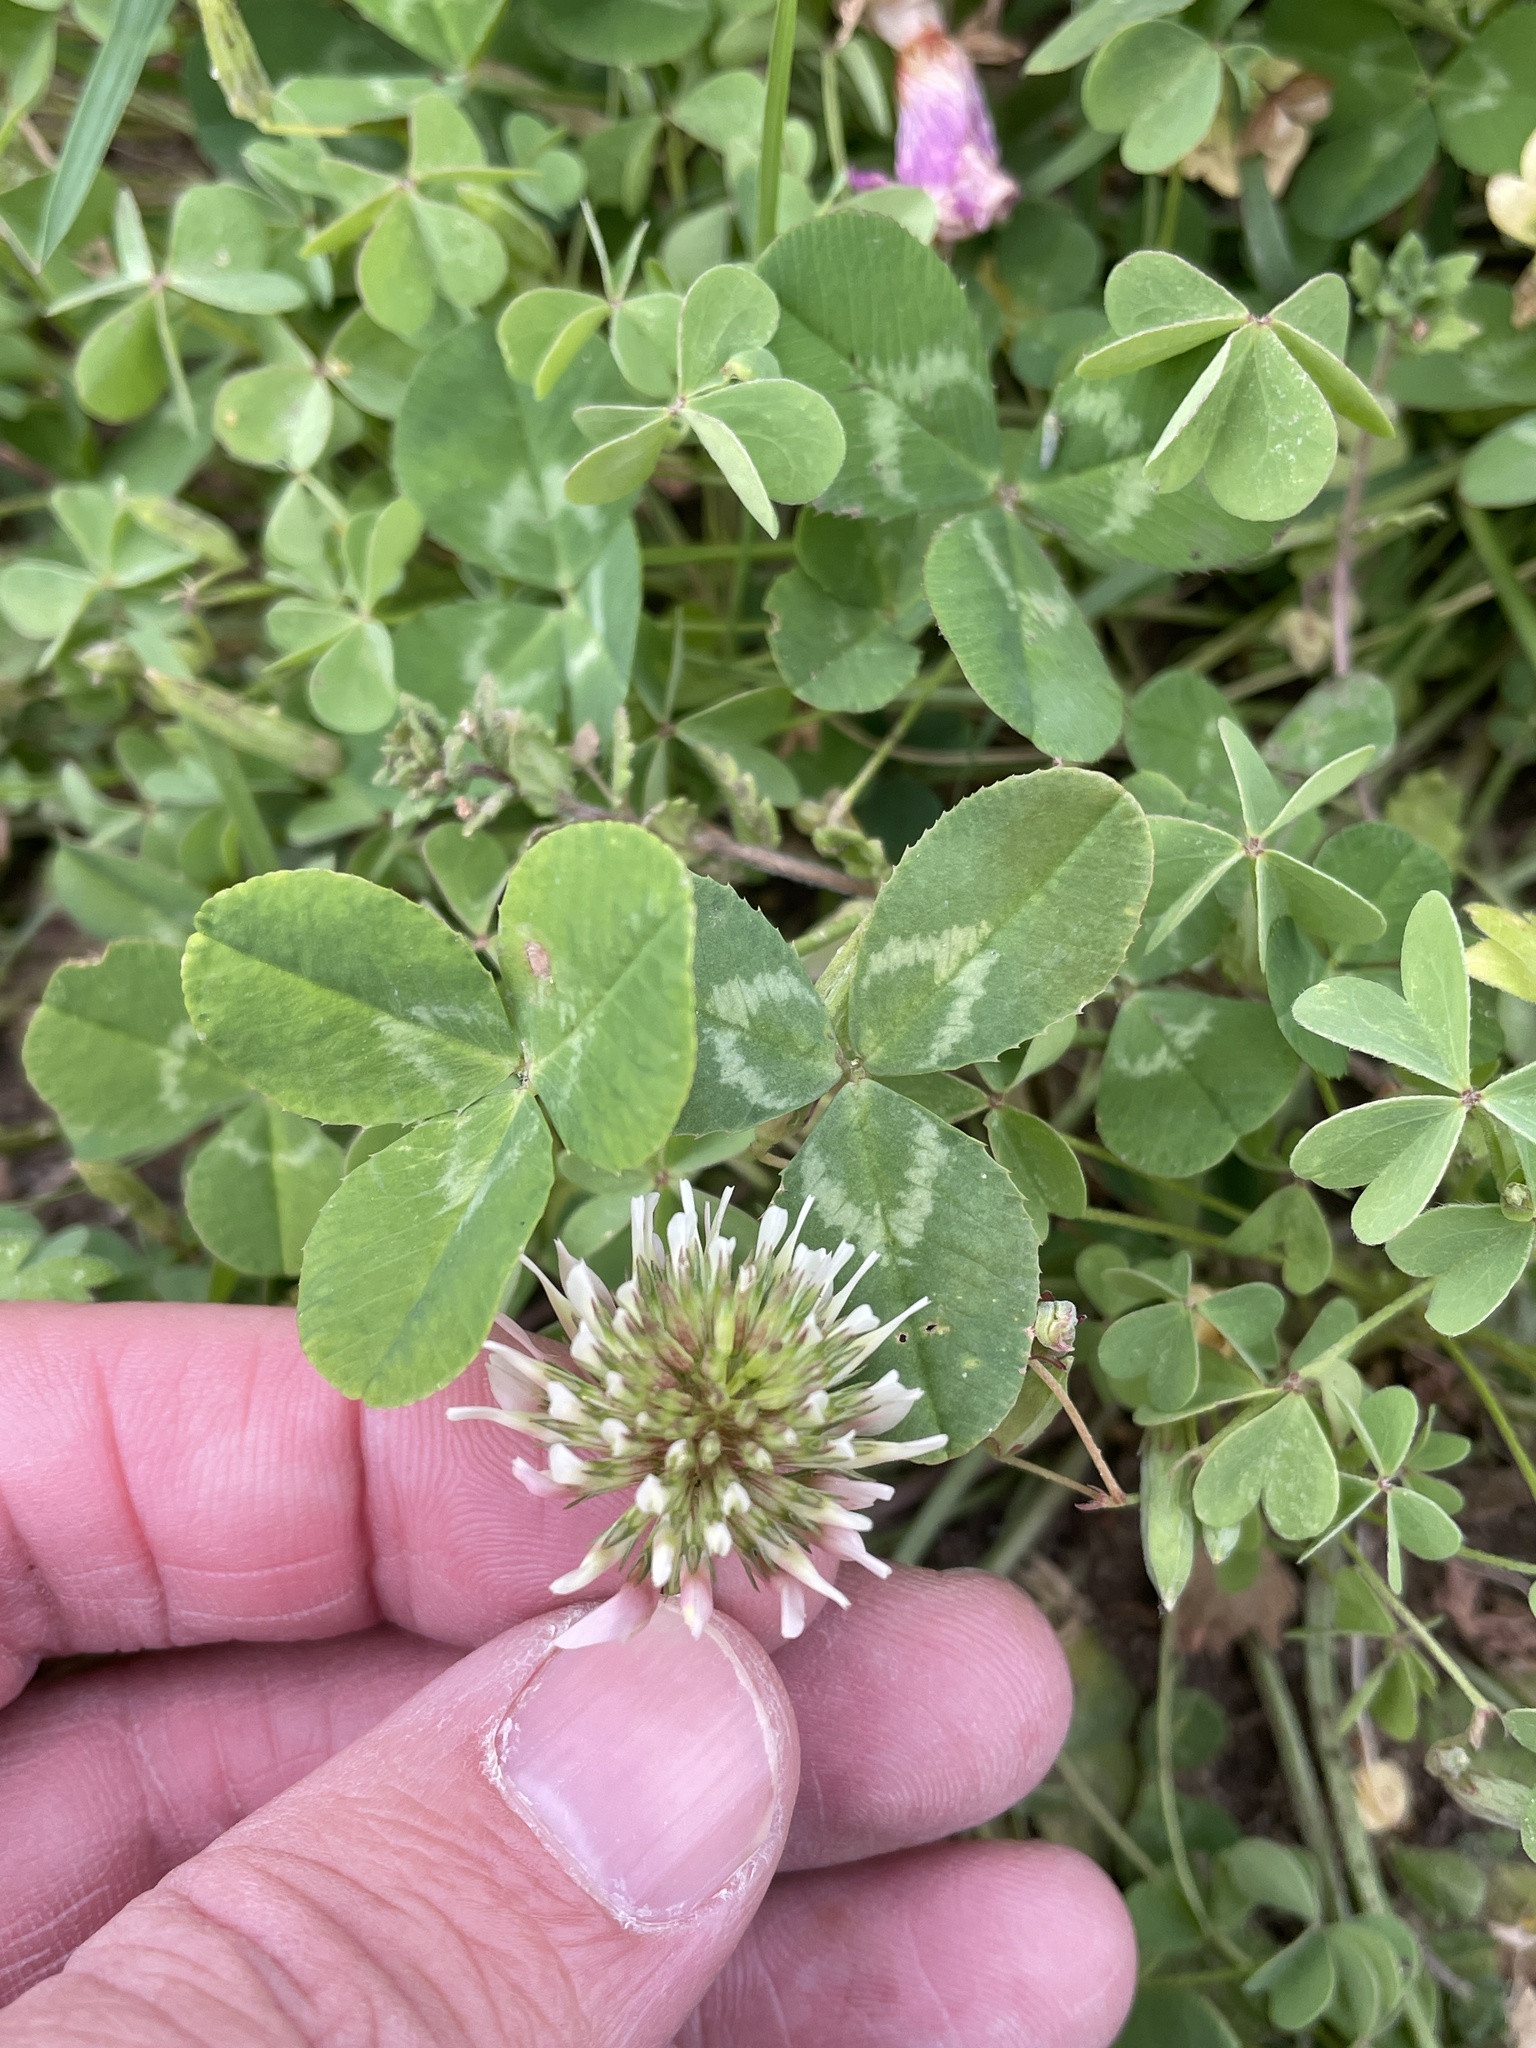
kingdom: Plantae
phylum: Tracheophyta
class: Magnoliopsida
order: Fabales
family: Fabaceae
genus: Trifolium
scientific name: Trifolium repens
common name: White clover
